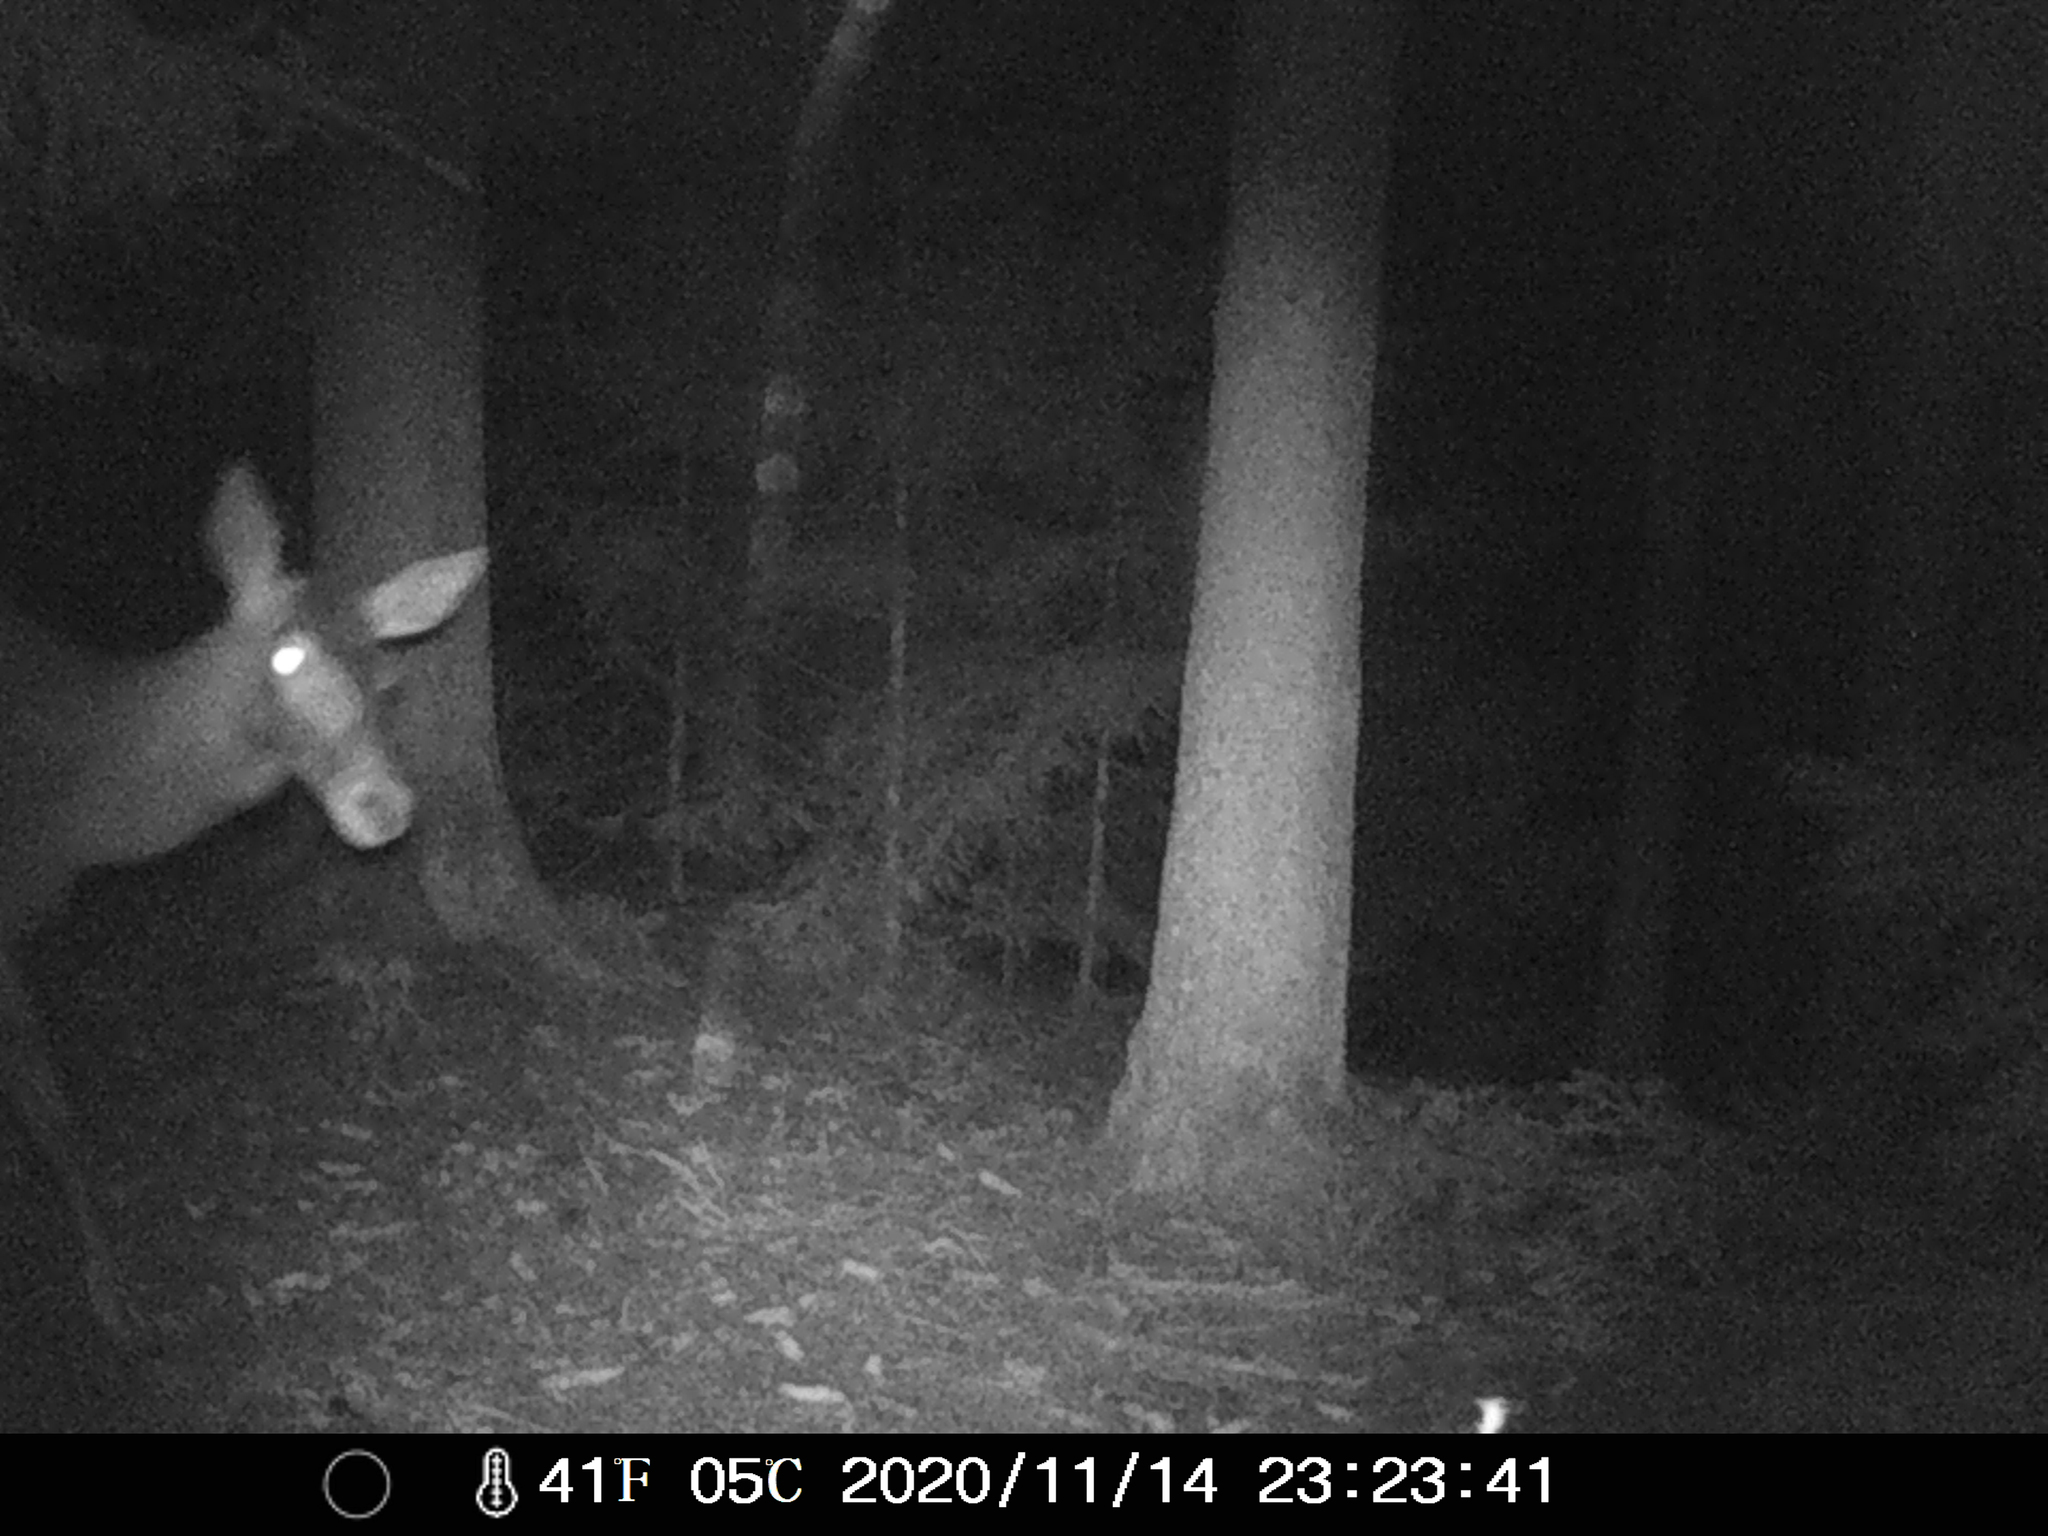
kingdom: Animalia
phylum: Chordata
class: Mammalia
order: Artiodactyla
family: Cervidae
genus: Cervus
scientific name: Cervus elaphus
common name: Red deer
